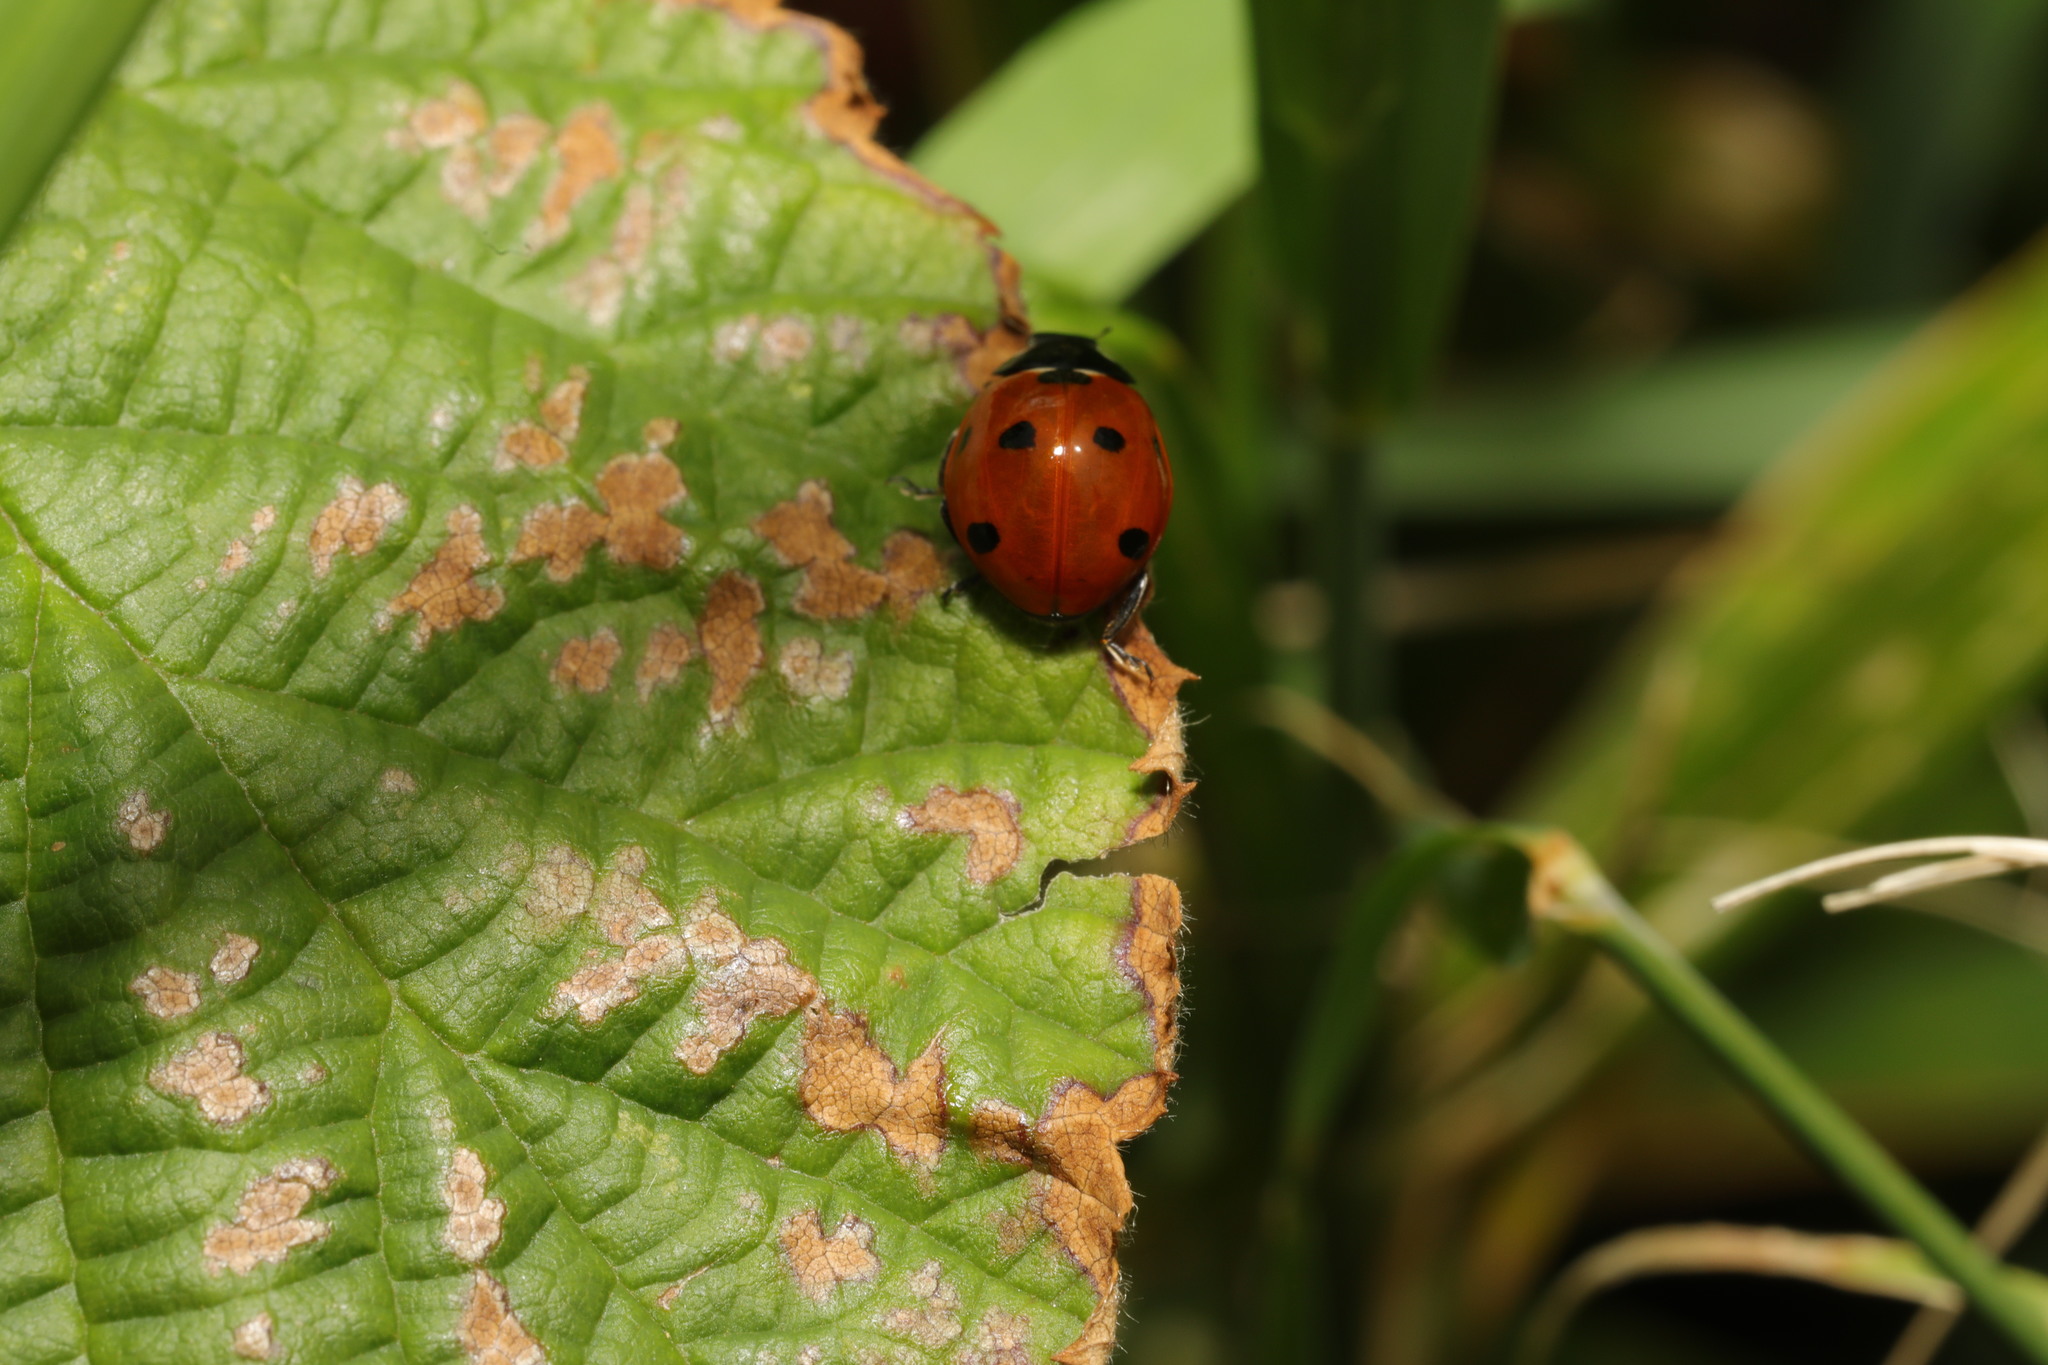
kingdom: Animalia
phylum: Arthropoda
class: Insecta
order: Coleoptera
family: Coccinellidae
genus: Coccinella
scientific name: Coccinella septempunctata
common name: Sevenspotted lady beetle
